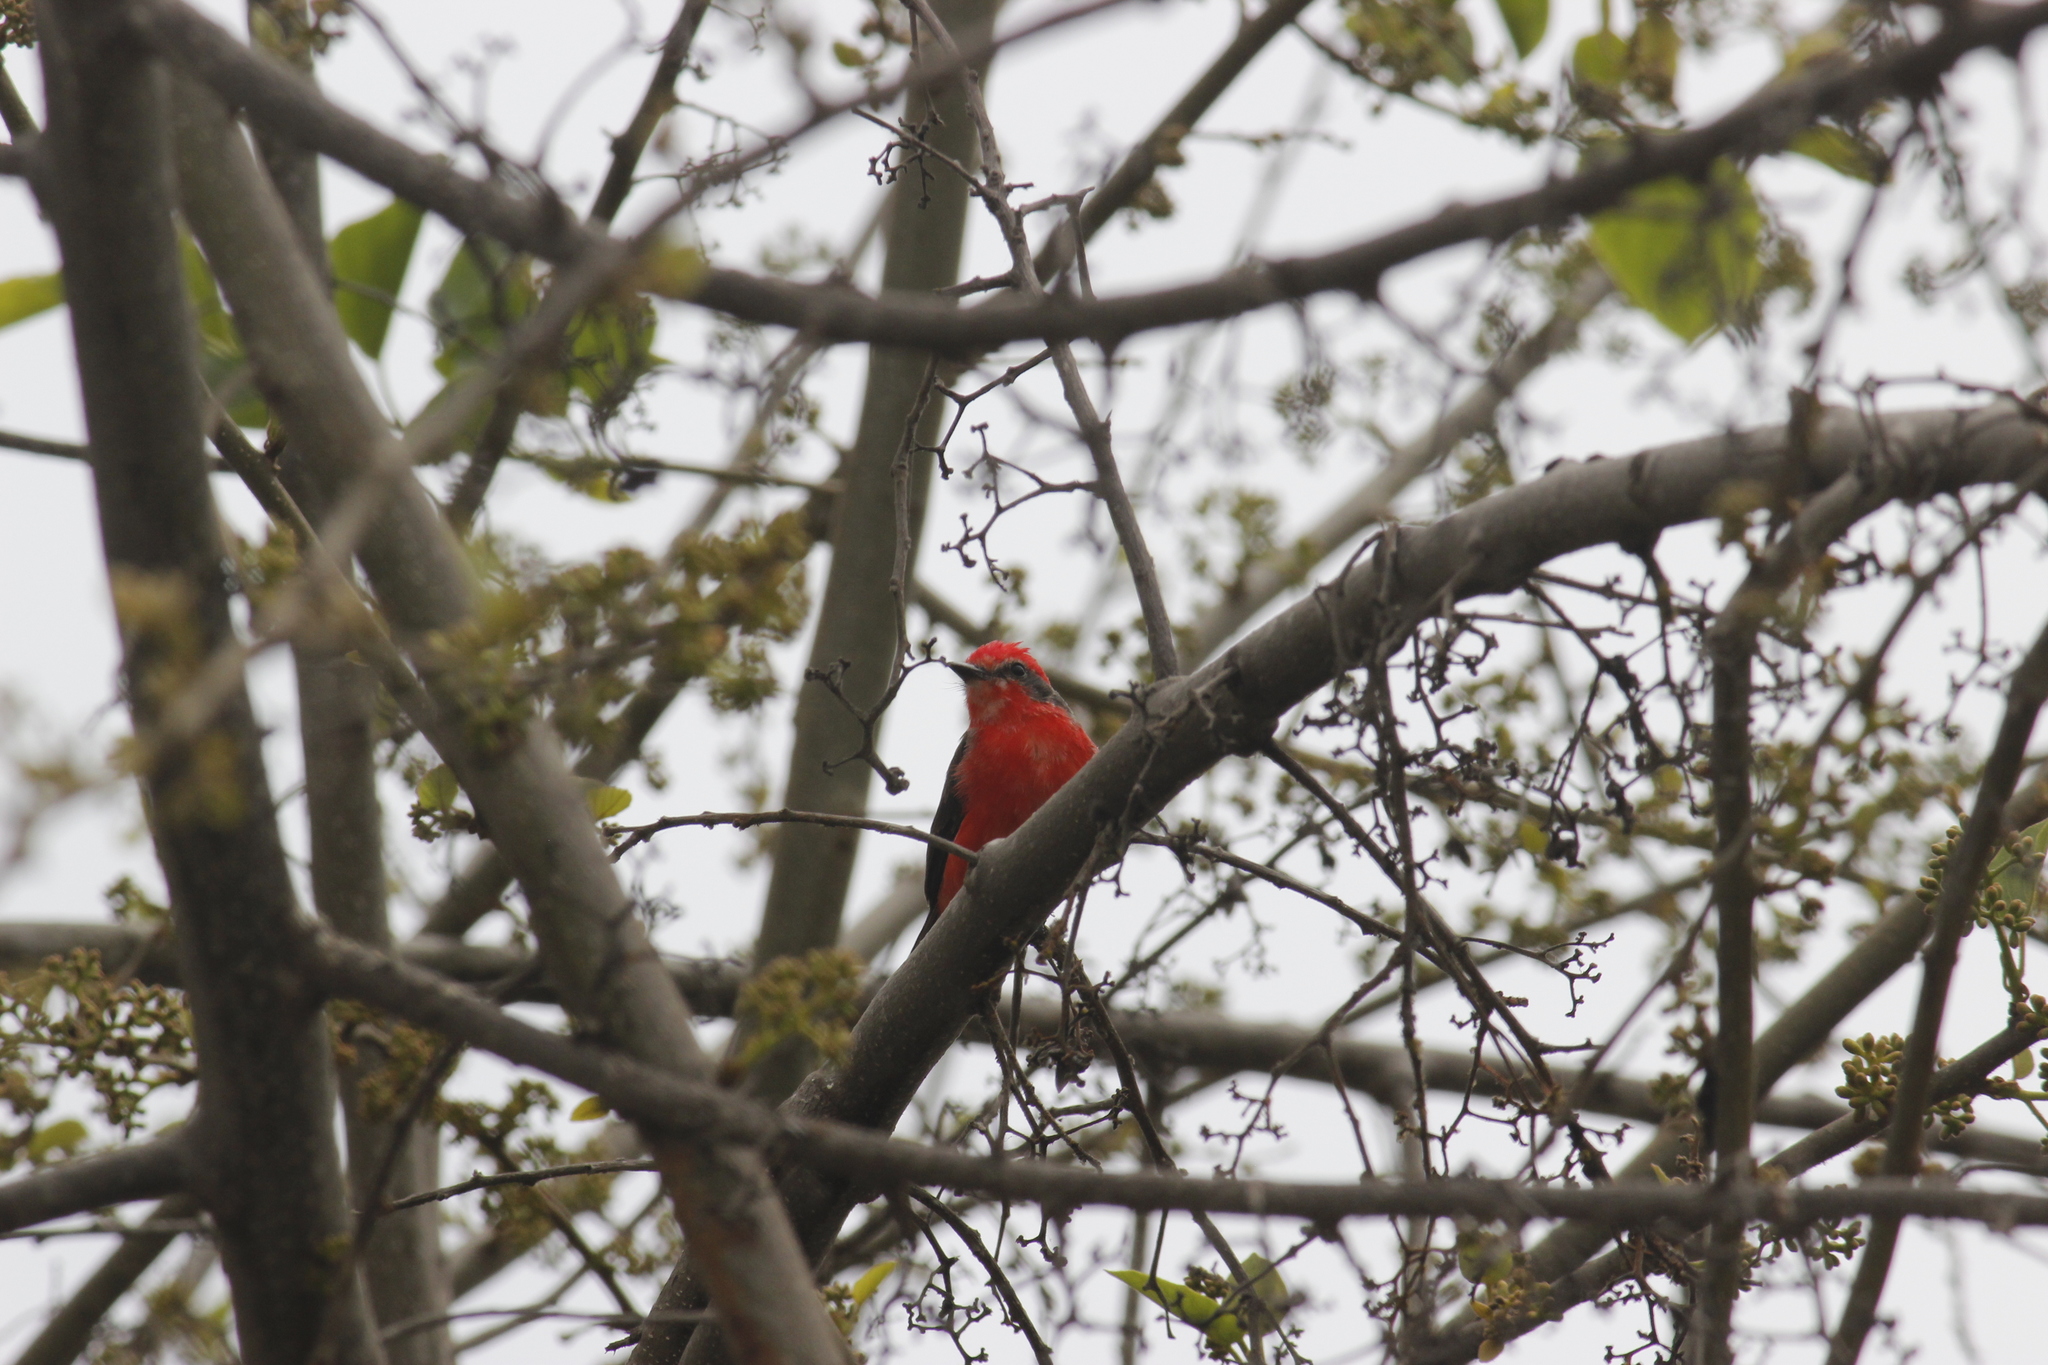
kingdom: Animalia
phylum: Chordata
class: Aves
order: Passeriformes
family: Tyrannidae
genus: Pyrocephalus
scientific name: Pyrocephalus rubinus
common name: Vermilion flycatcher
